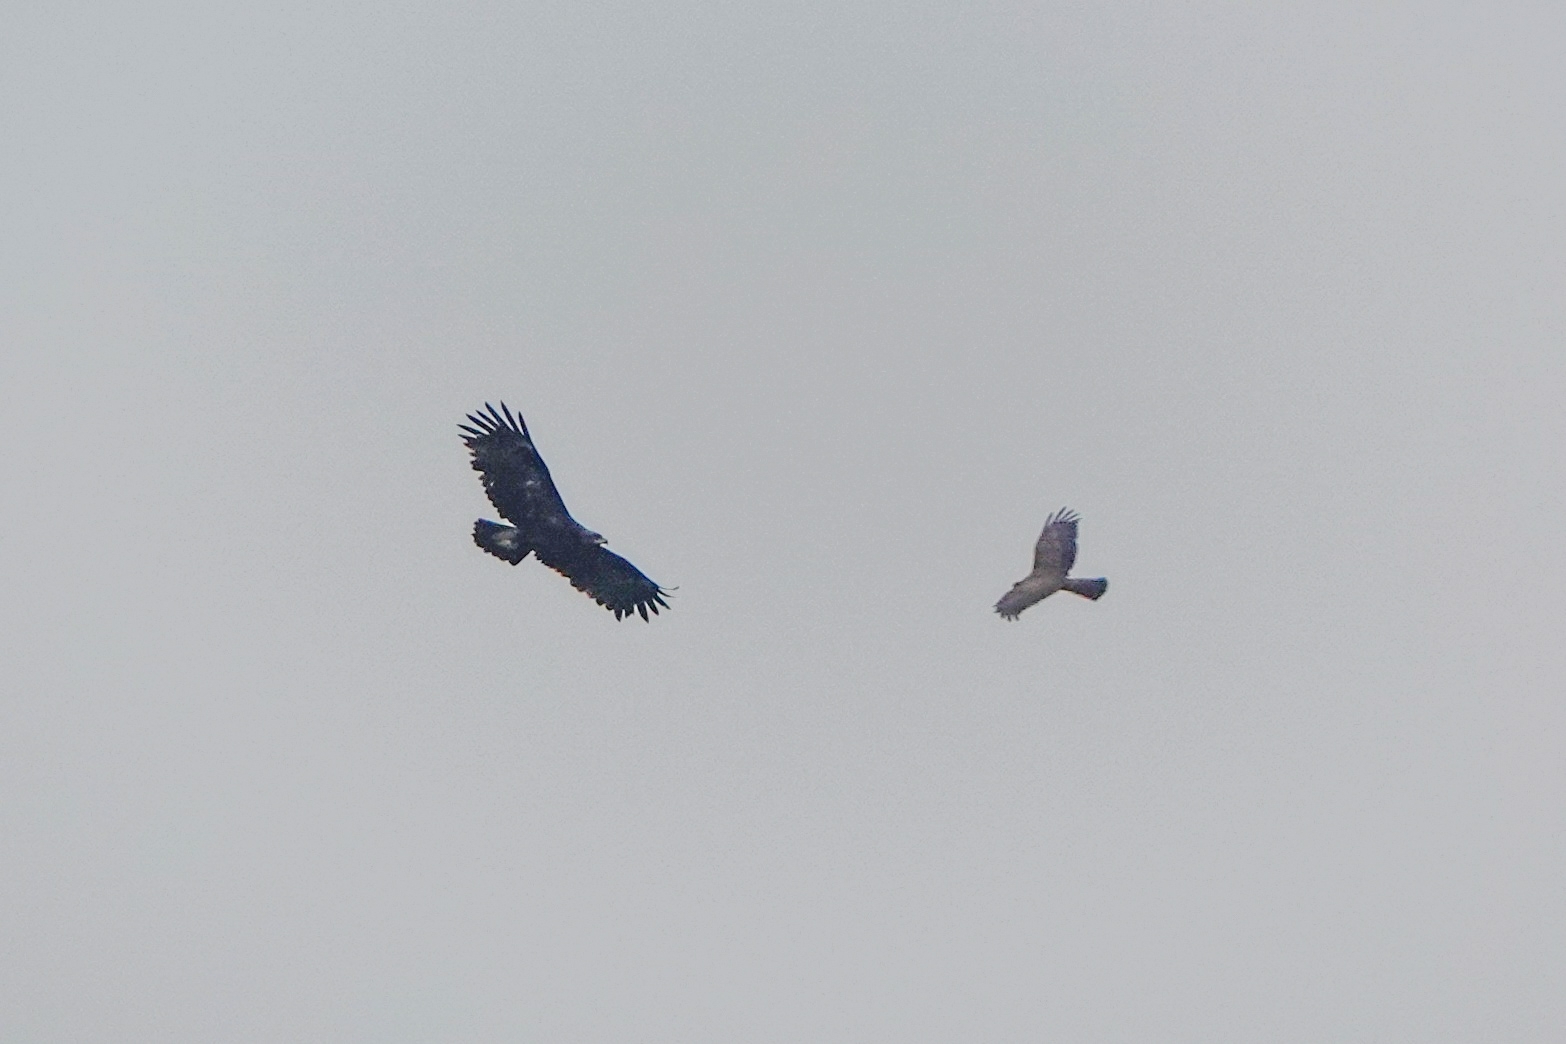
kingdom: Animalia
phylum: Chordata
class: Aves
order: Accipitriformes
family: Accipitridae
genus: Aquila
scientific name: Aquila clanga
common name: Greater spotted eagle
